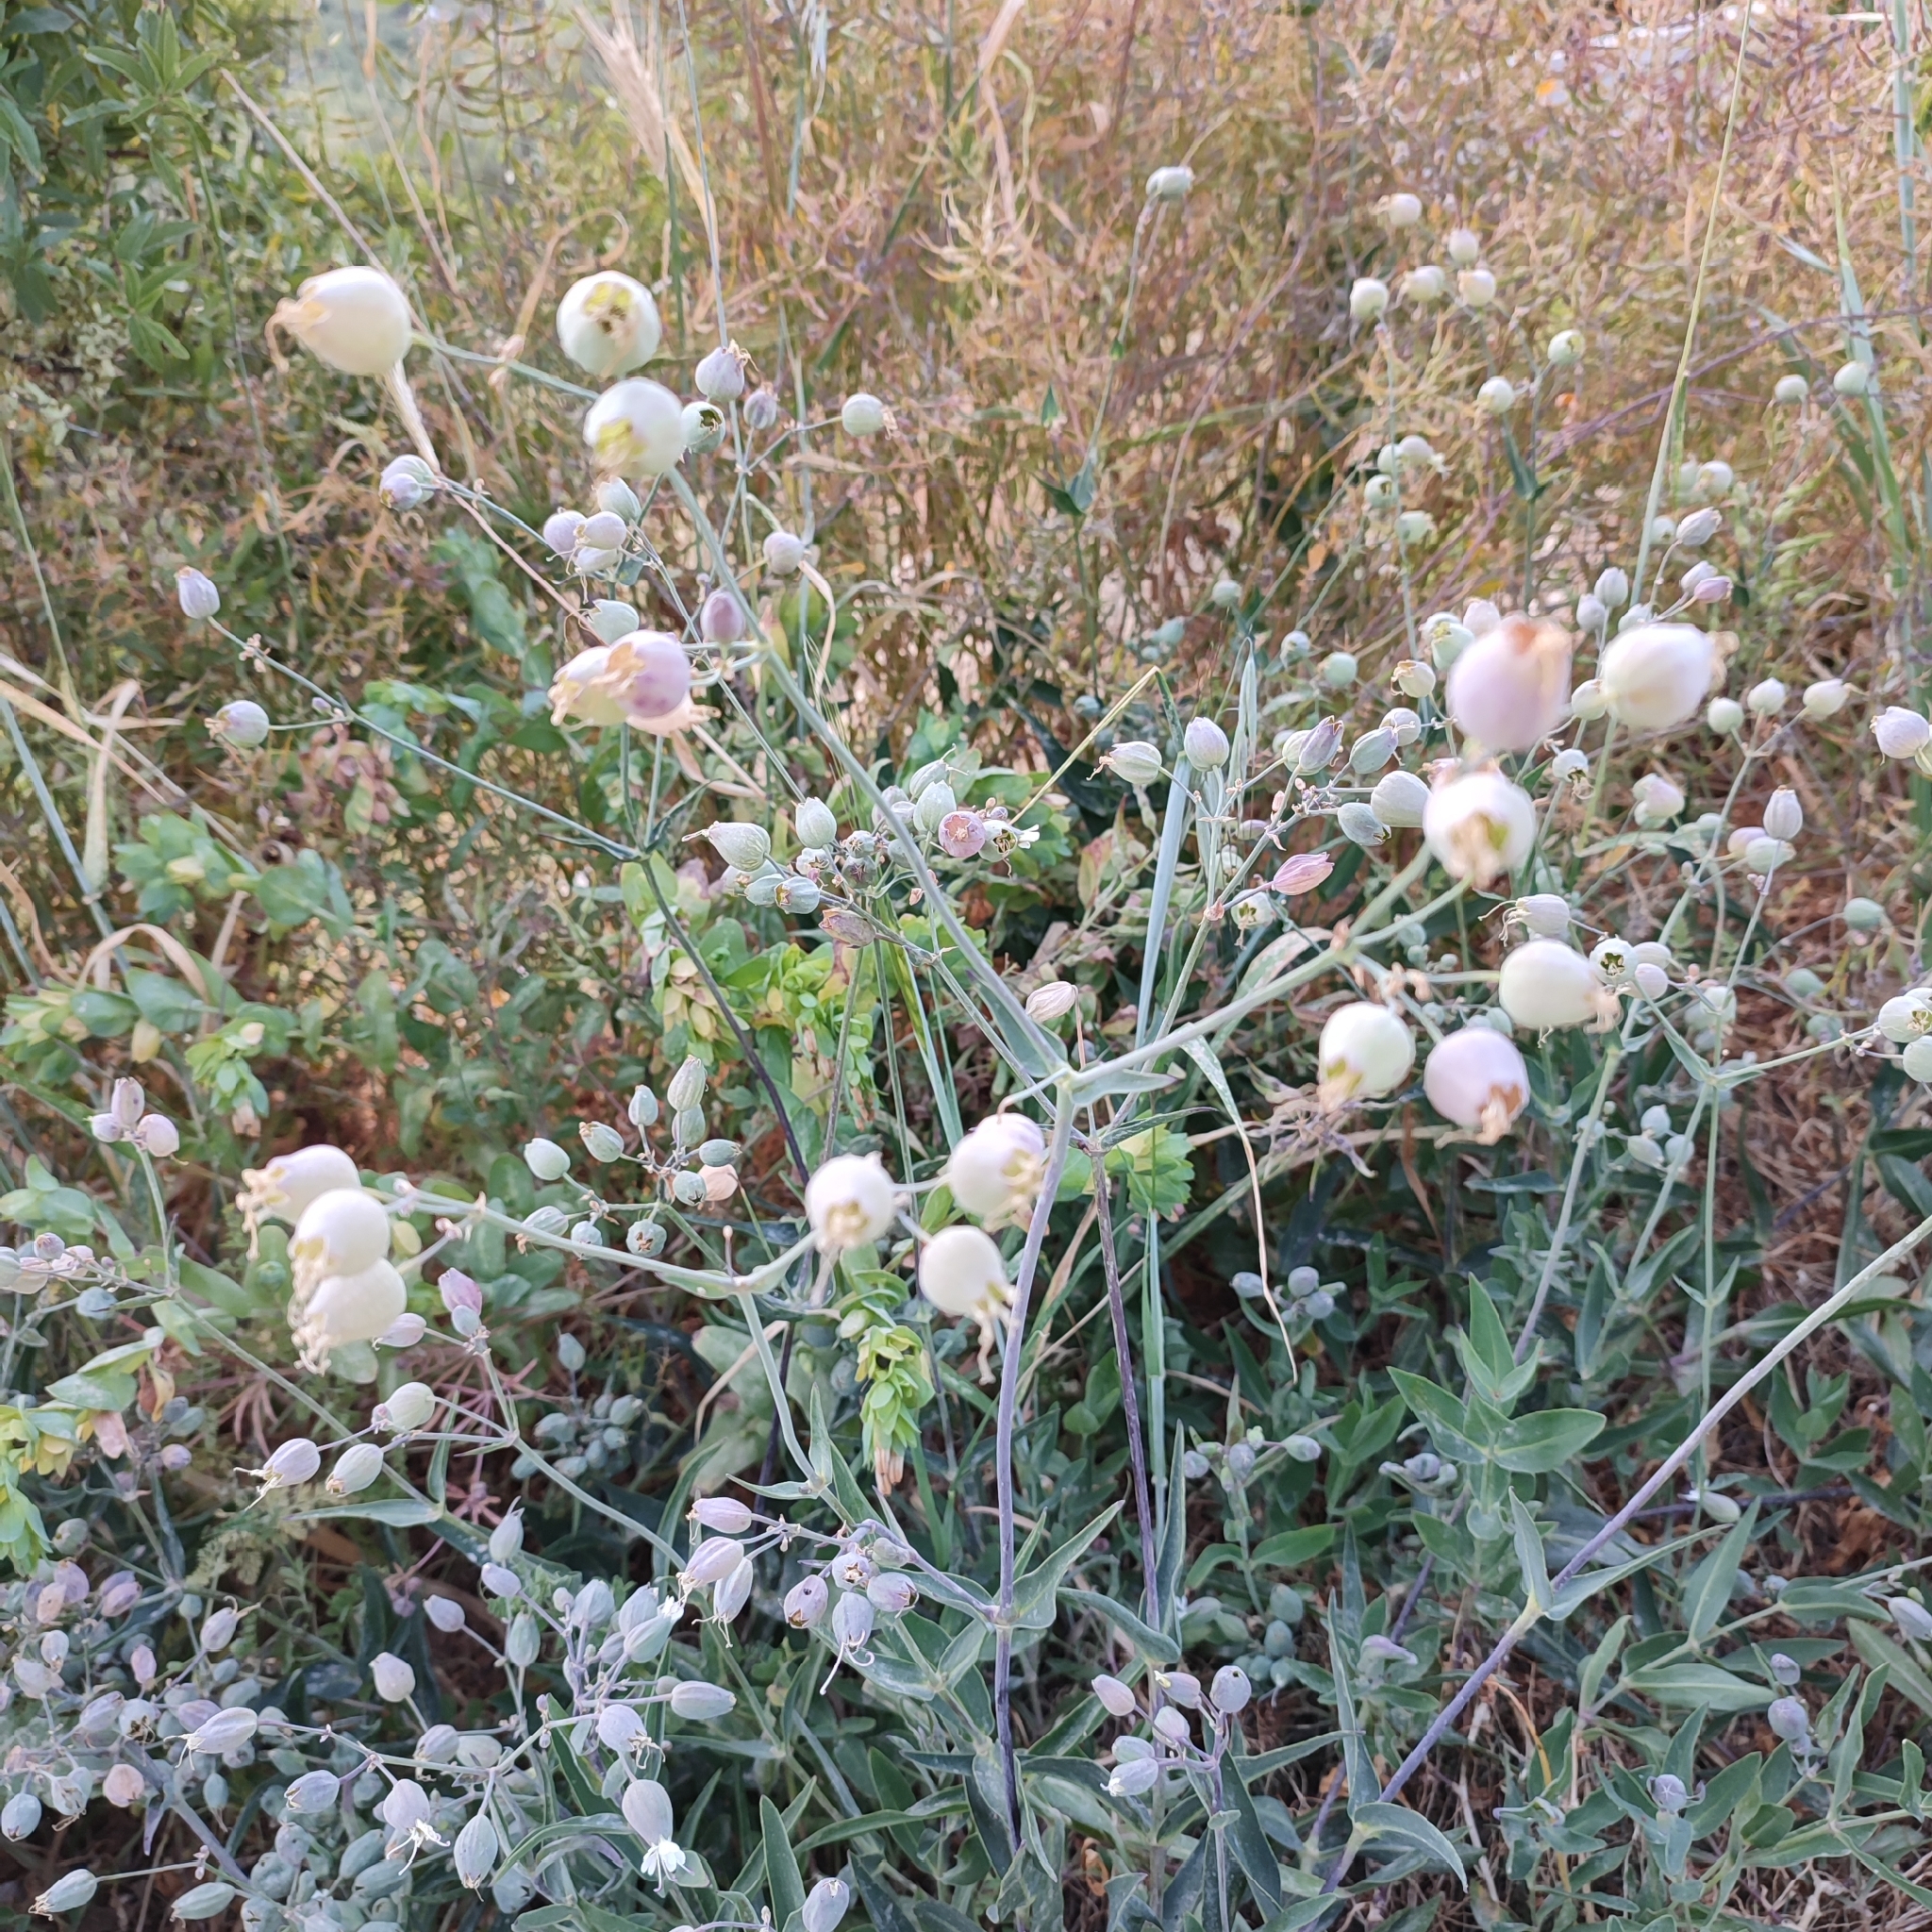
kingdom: Plantae
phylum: Tracheophyta
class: Magnoliopsida
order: Caryophyllales
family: Caryophyllaceae
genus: Silene
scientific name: Silene vulgaris
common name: Bladder campion
